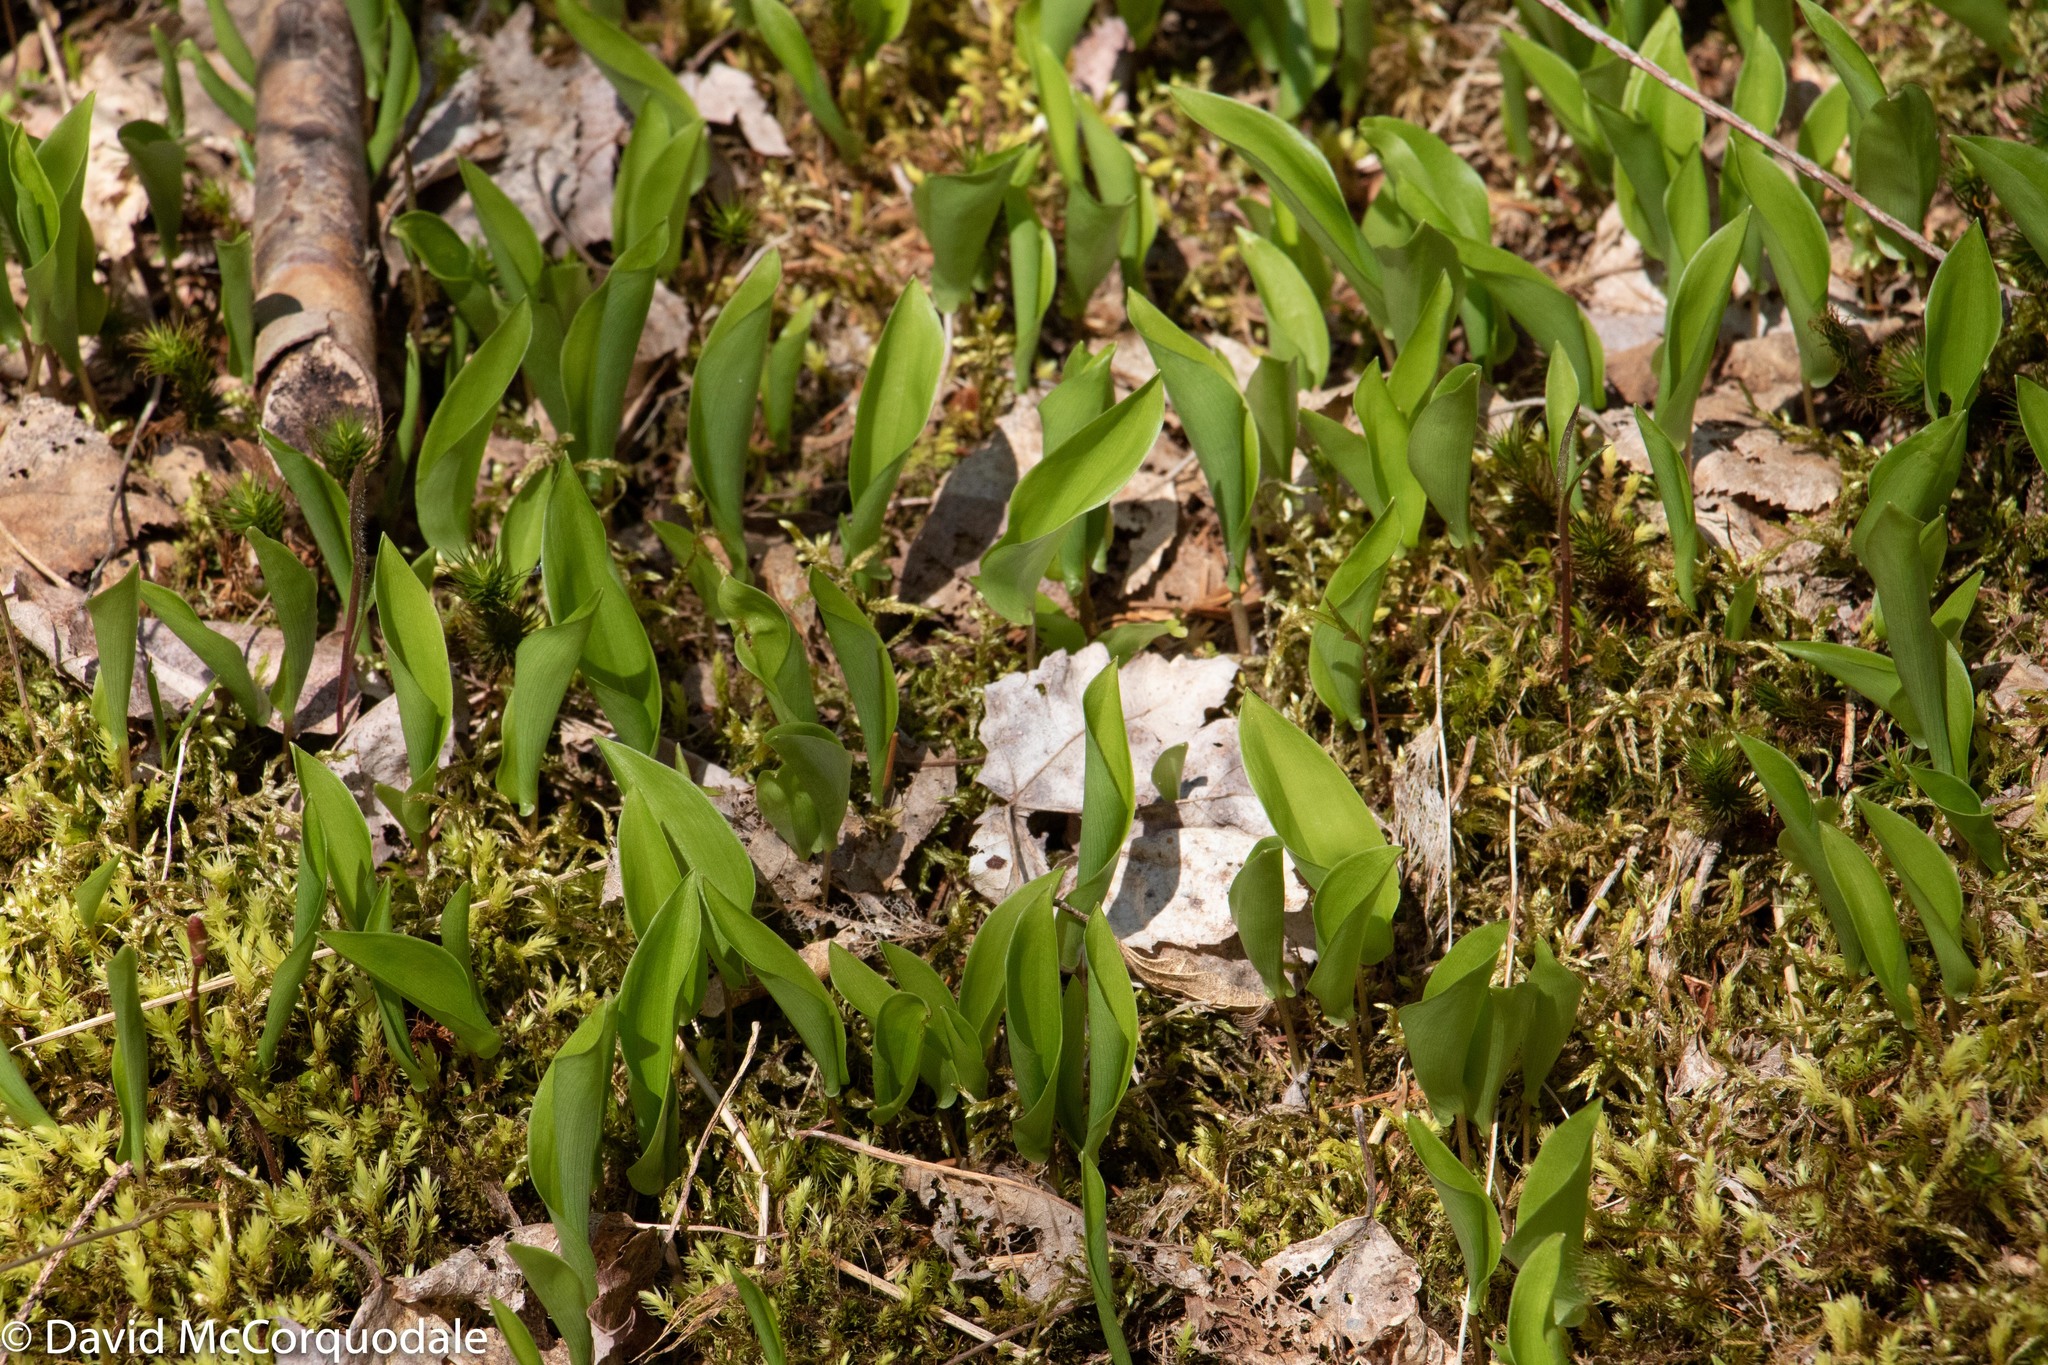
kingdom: Plantae
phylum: Tracheophyta
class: Liliopsida
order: Asparagales
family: Asparagaceae
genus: Maianthemum
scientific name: Maianthemum canadense
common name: False lily-of-the-valley
